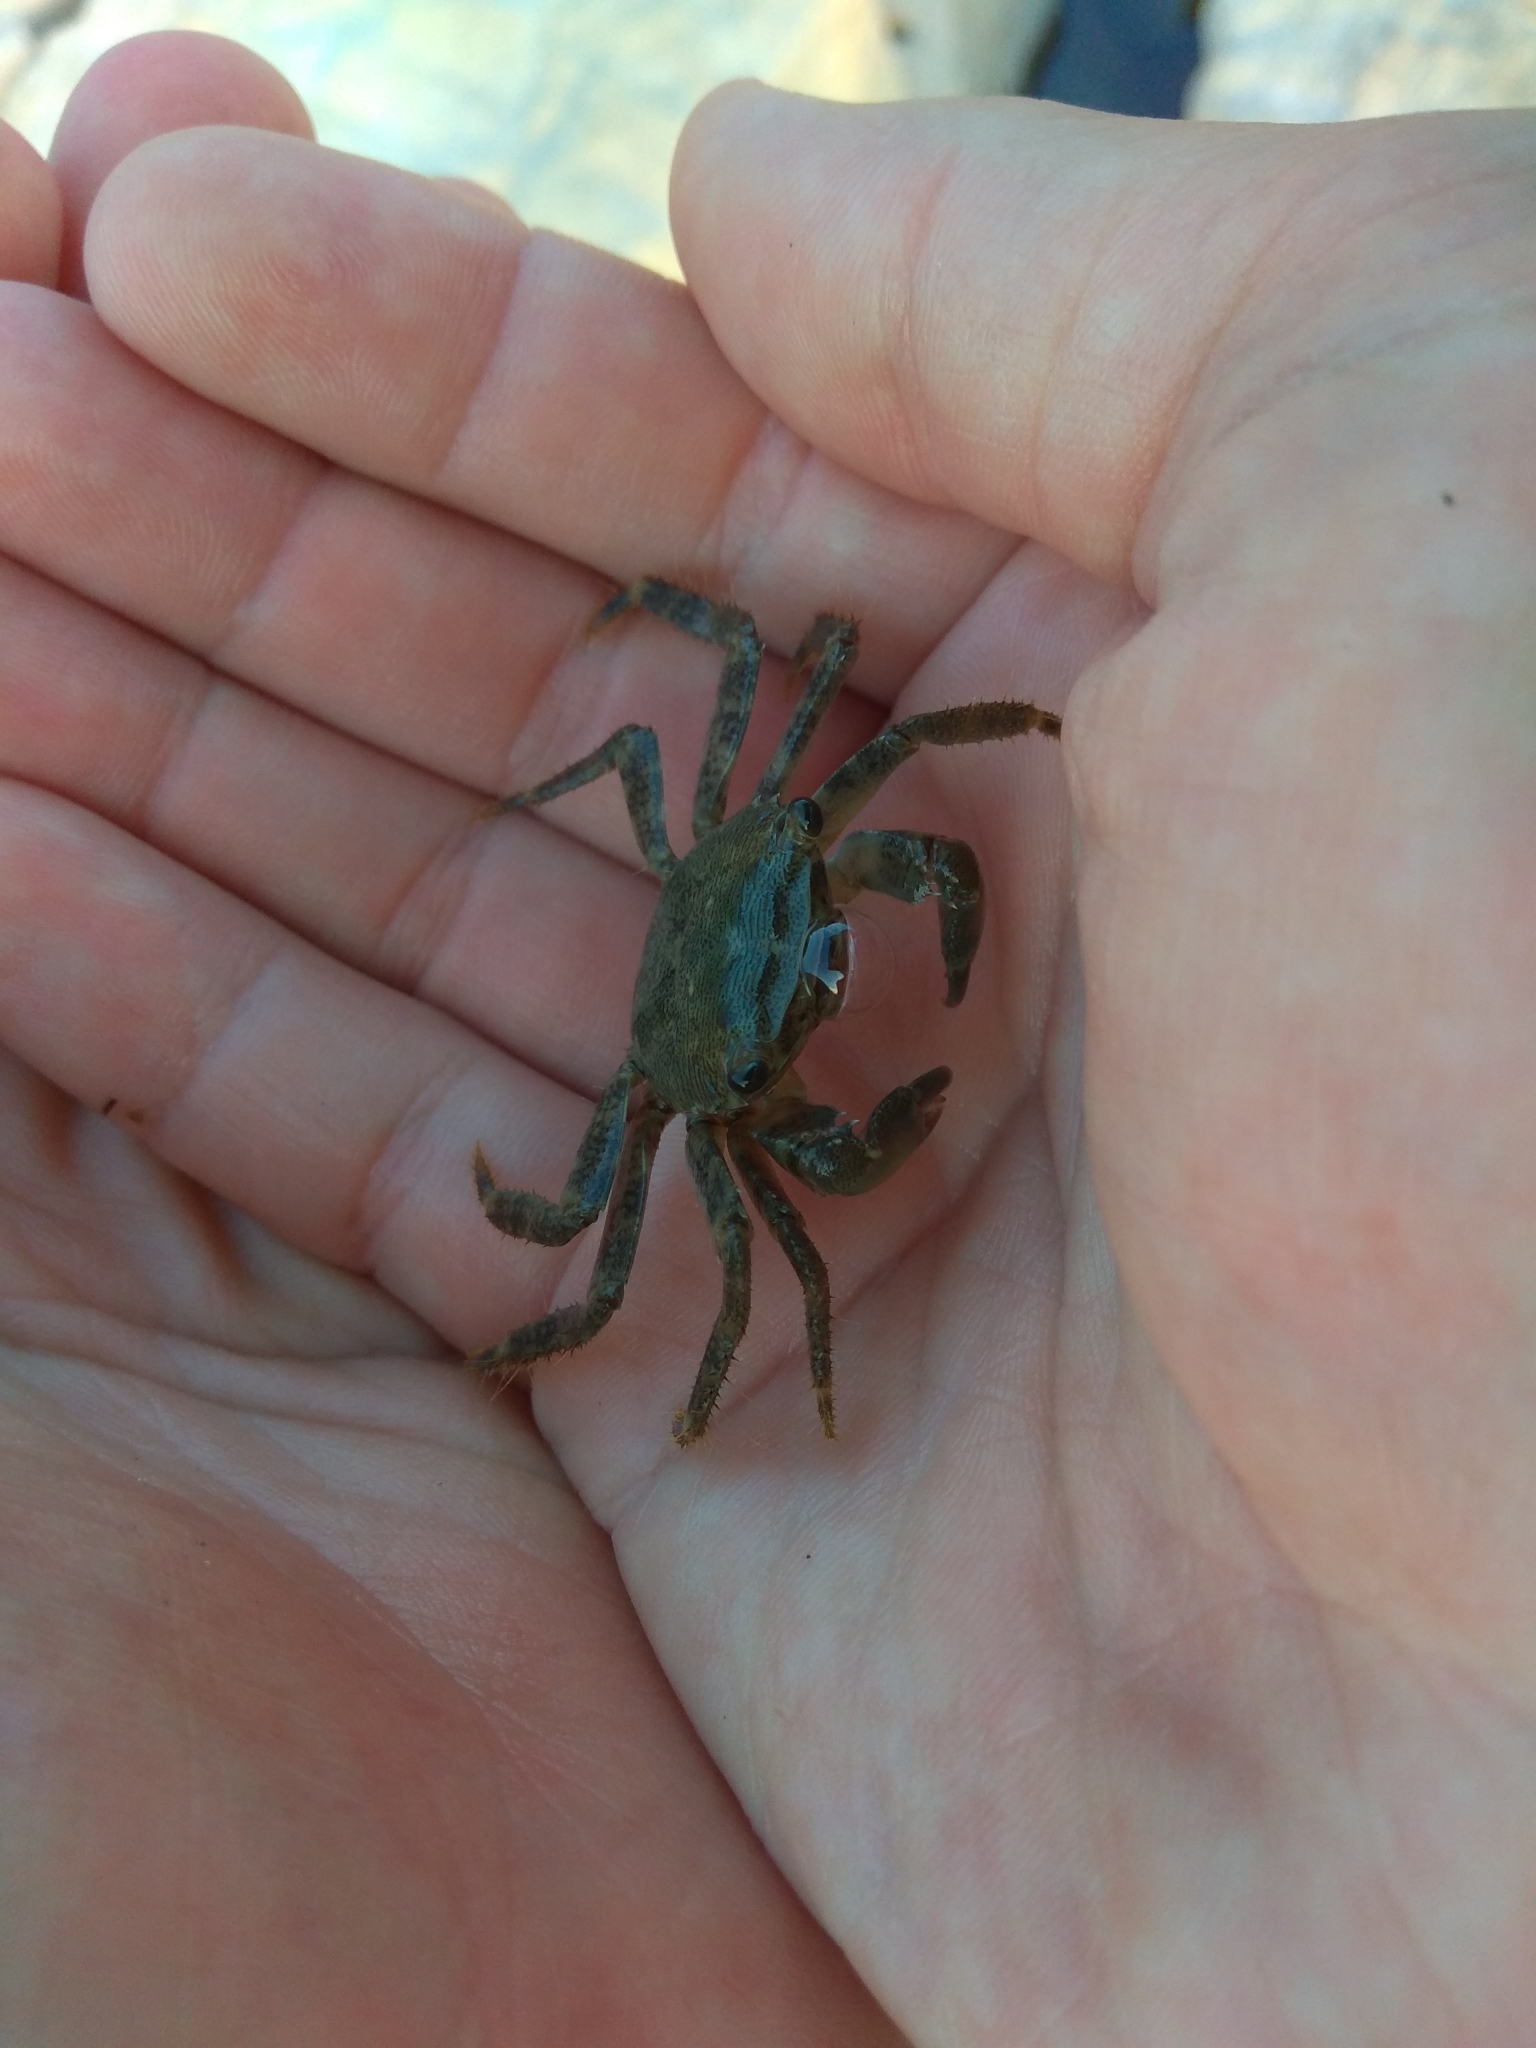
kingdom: Animalia
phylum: Arthropoda
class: Malacostraca
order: Decapoda
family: Grapsidae
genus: Pachygrapsus
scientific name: Pachygrapsus marmoratus
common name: Marbled rock crab
